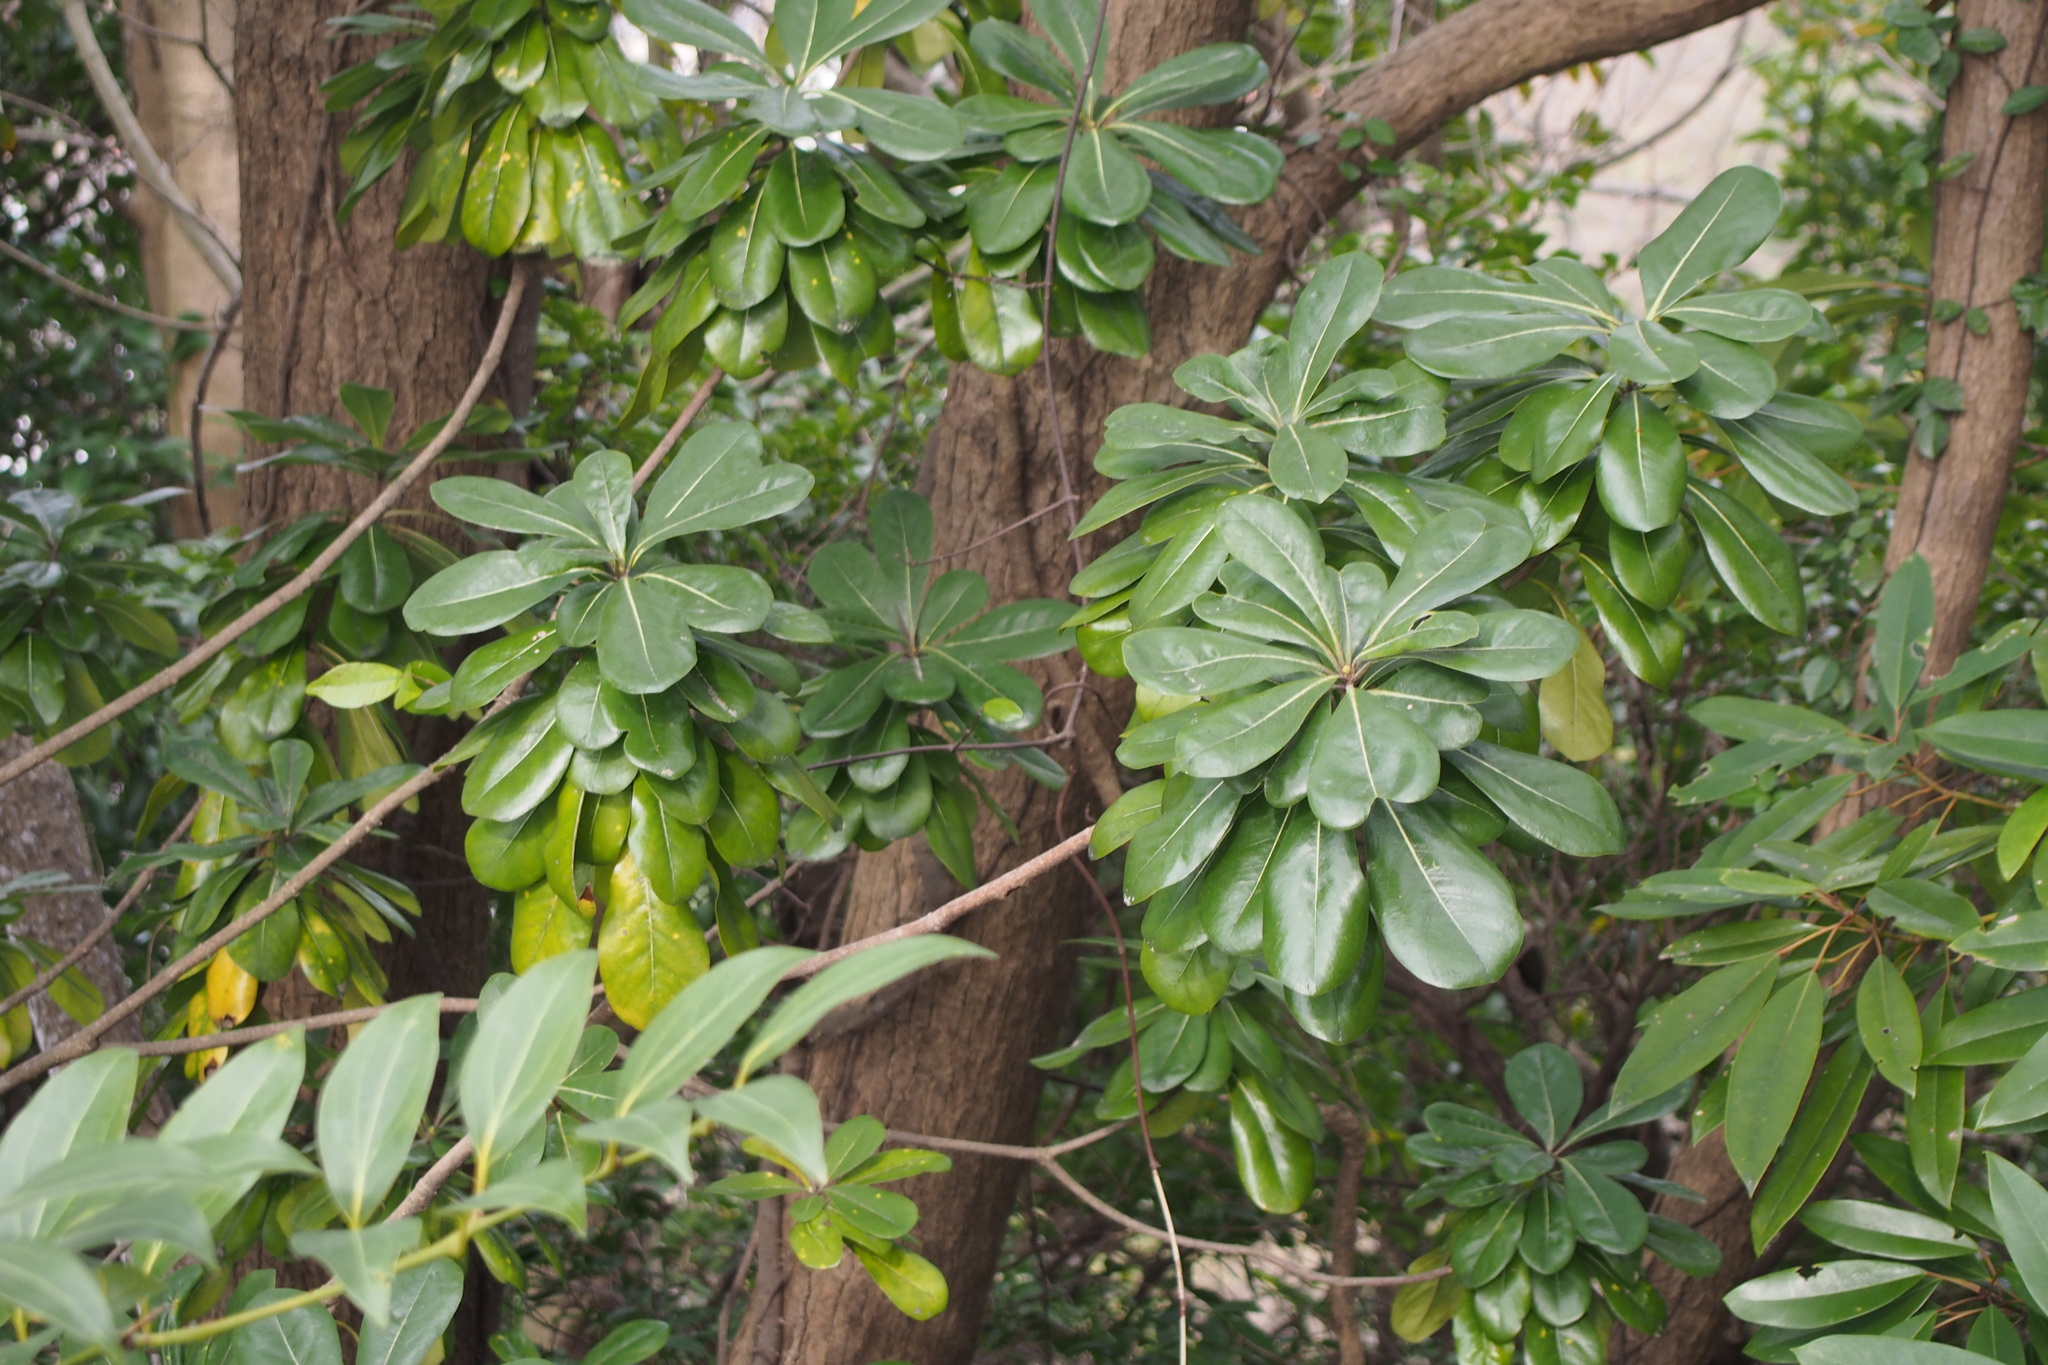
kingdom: Plantae
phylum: Tracheophyta
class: Magnoliopsida
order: Apiales
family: Pittosporaceae
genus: Pittosporum
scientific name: Pittosporum tobira
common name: Japanese cheesewood
